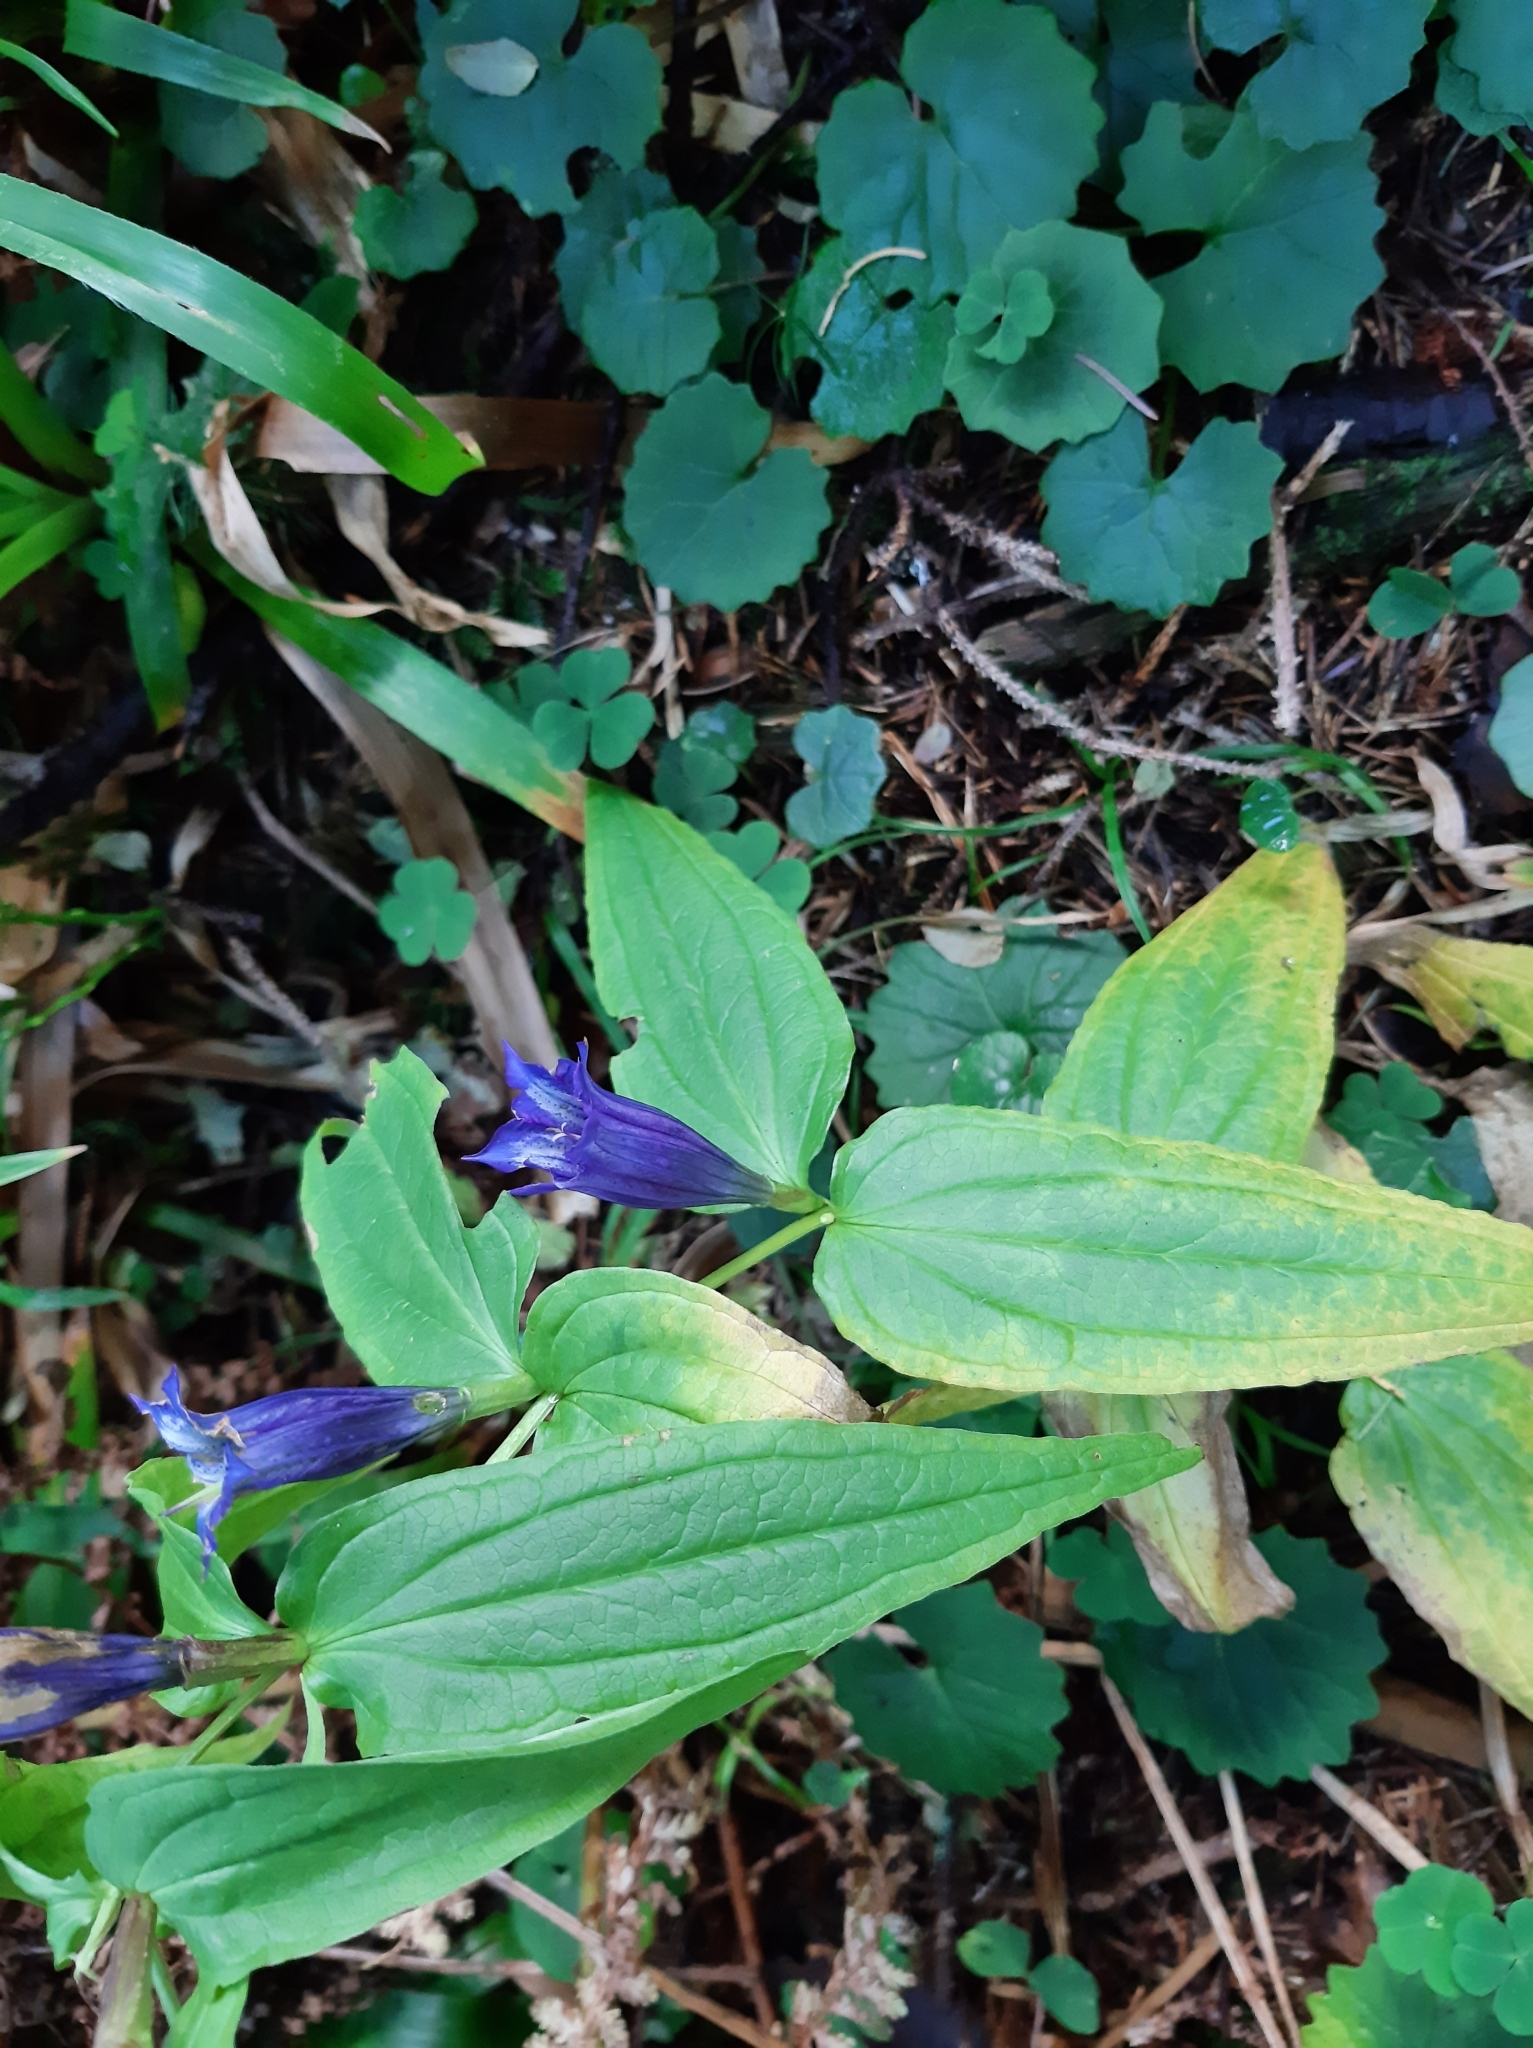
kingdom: Plantae
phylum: Tracheophyta
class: Magnoliopsida
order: Gentianales
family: Gentianaceae
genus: Gentiana
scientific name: Gentiana asclepiadea
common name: Willow gentian
